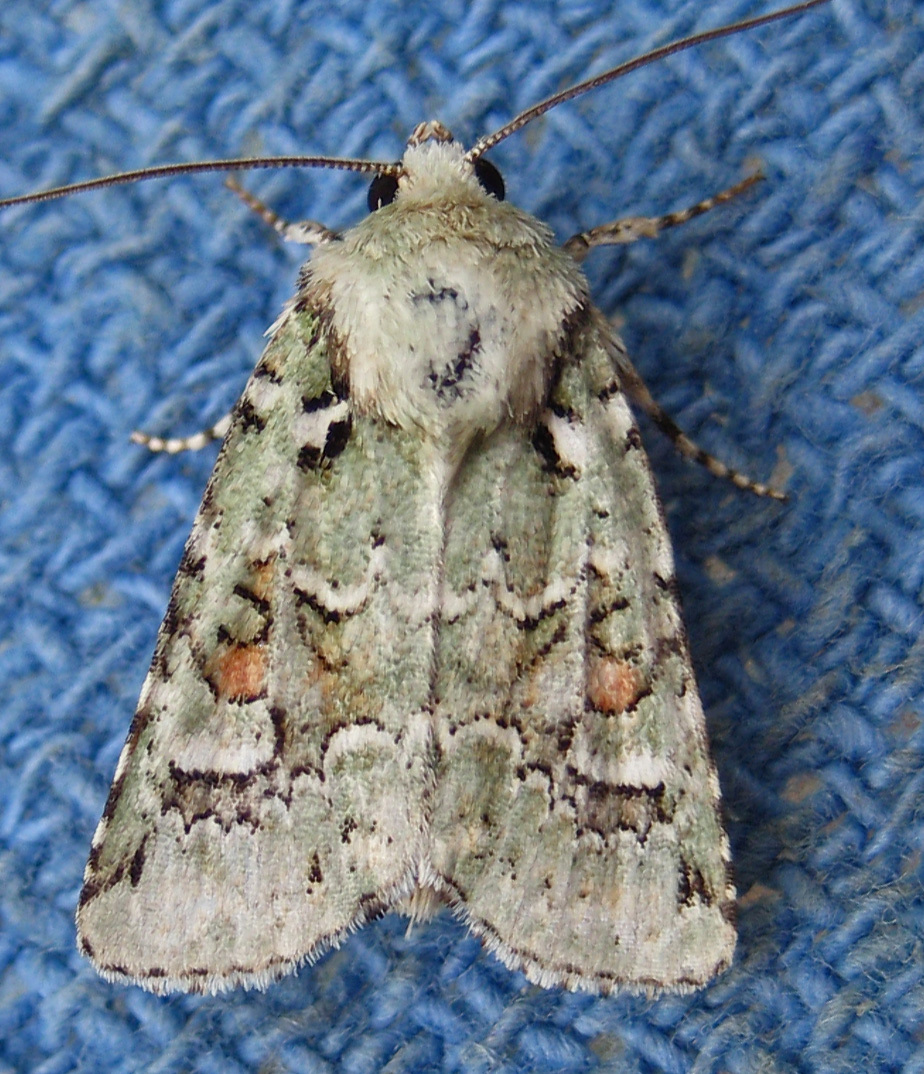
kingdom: Animalia
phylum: Arthropoda
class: Insecta
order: Lepidoptera
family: Noctuidae
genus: Lacinipolia
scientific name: Lacinipolia laudabilis
